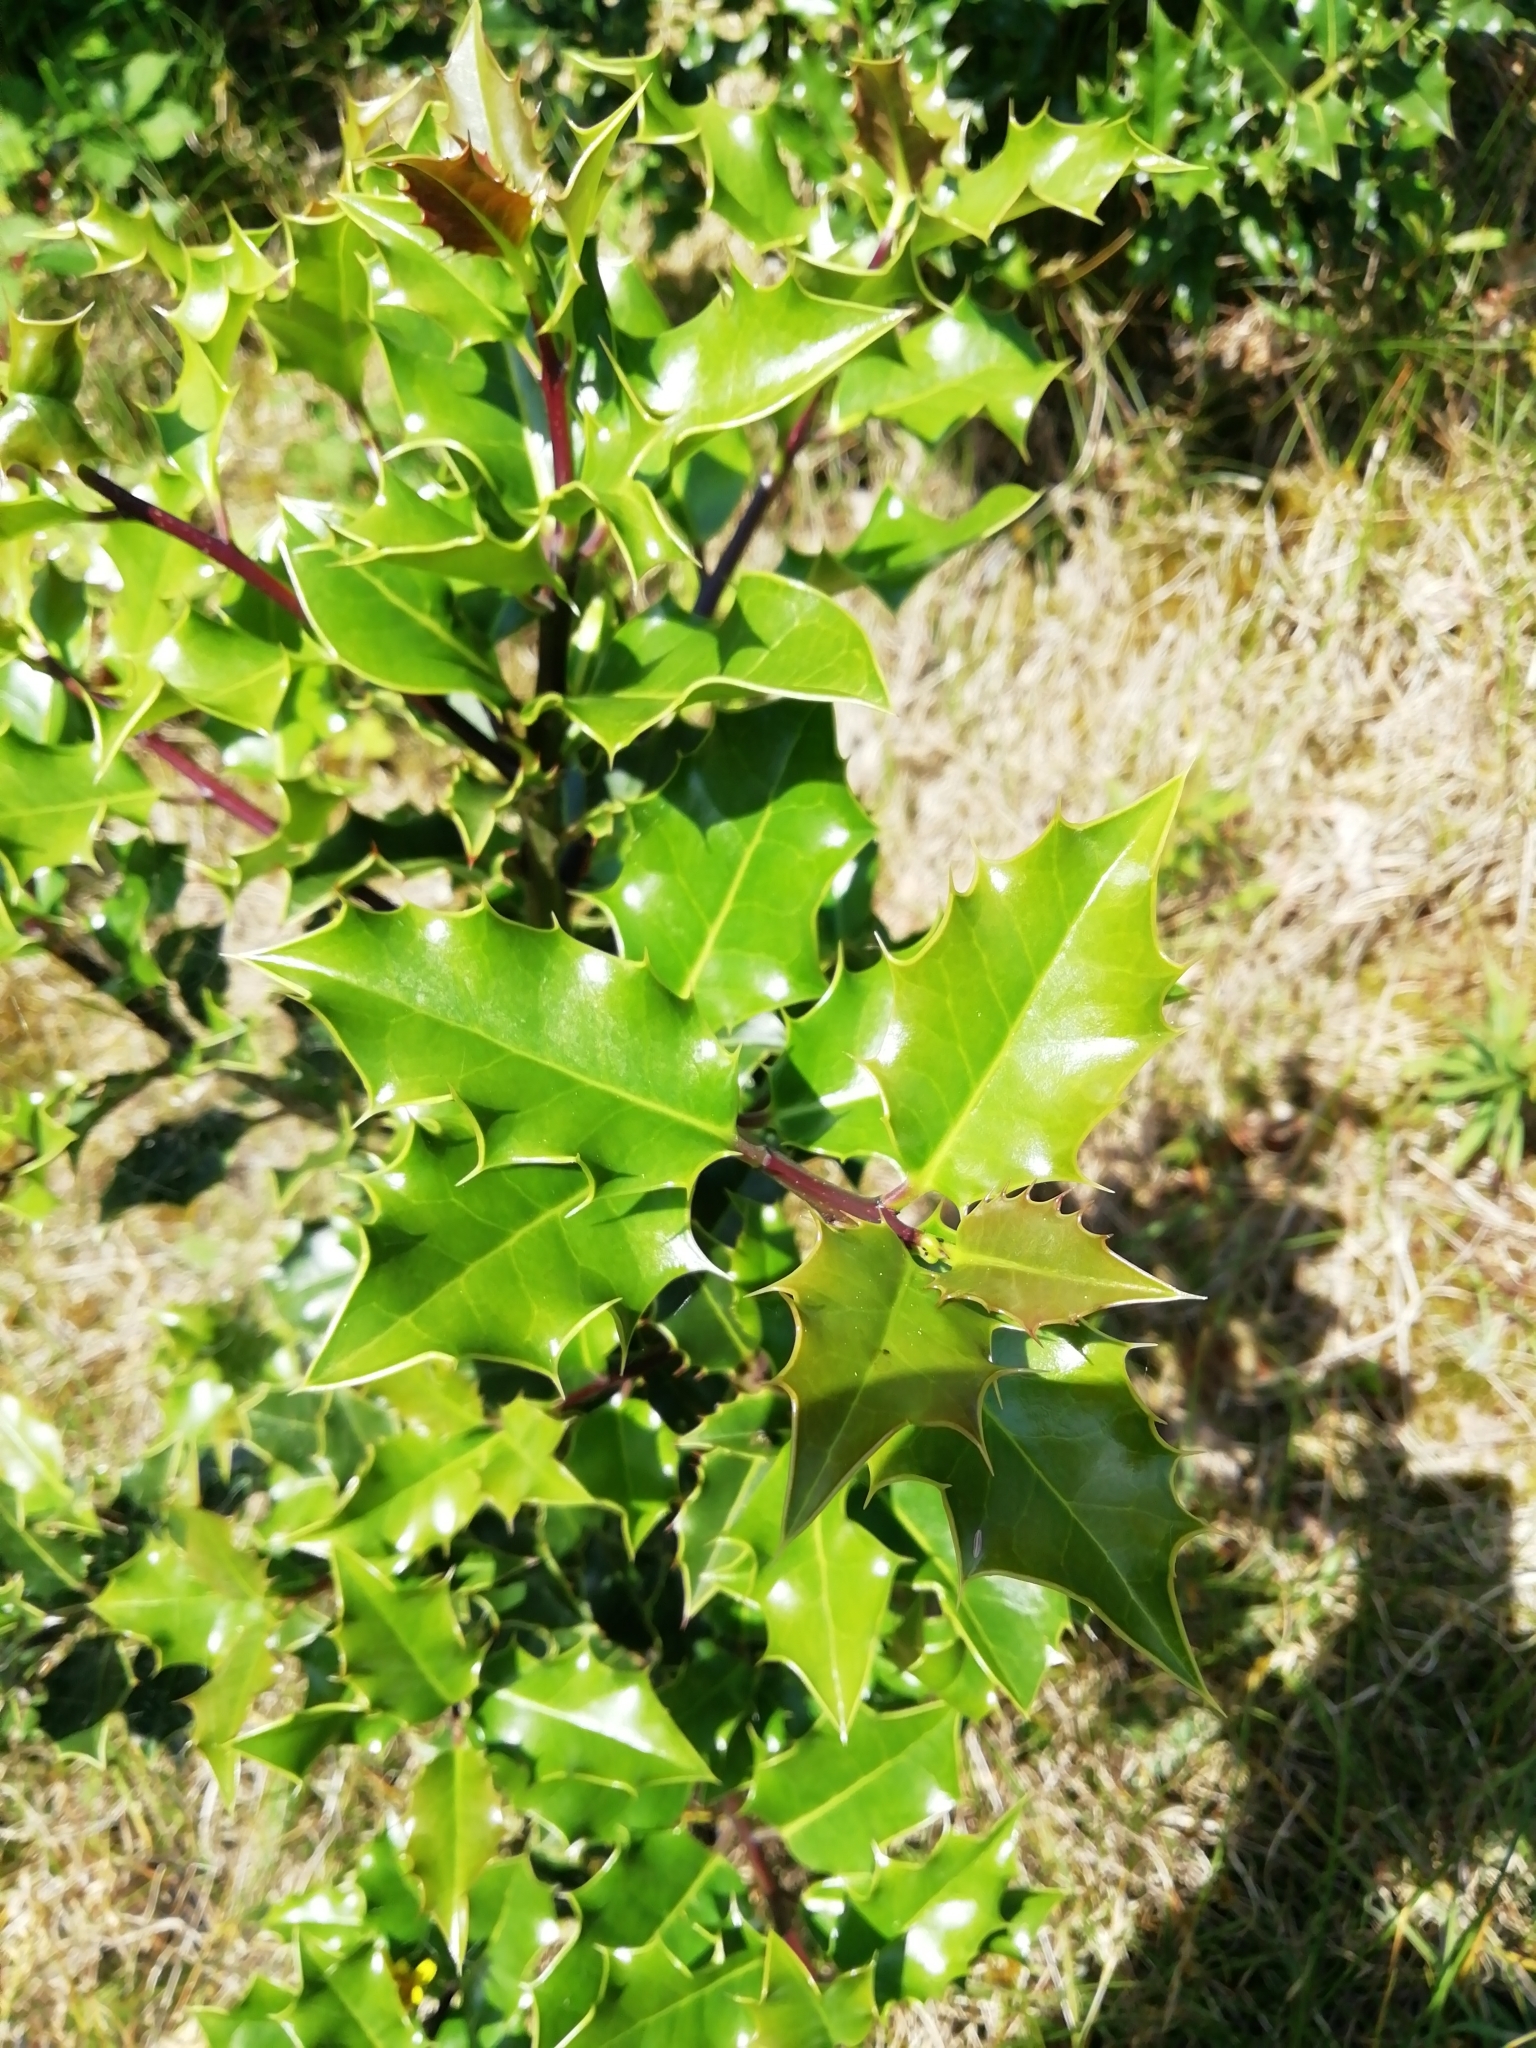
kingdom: Plantae
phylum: Tracheophyta
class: Magnoliopsida
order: Aquifoliales
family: Aquifoliaceae
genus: Ilex
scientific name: Ilex aquifolium
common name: English holly
